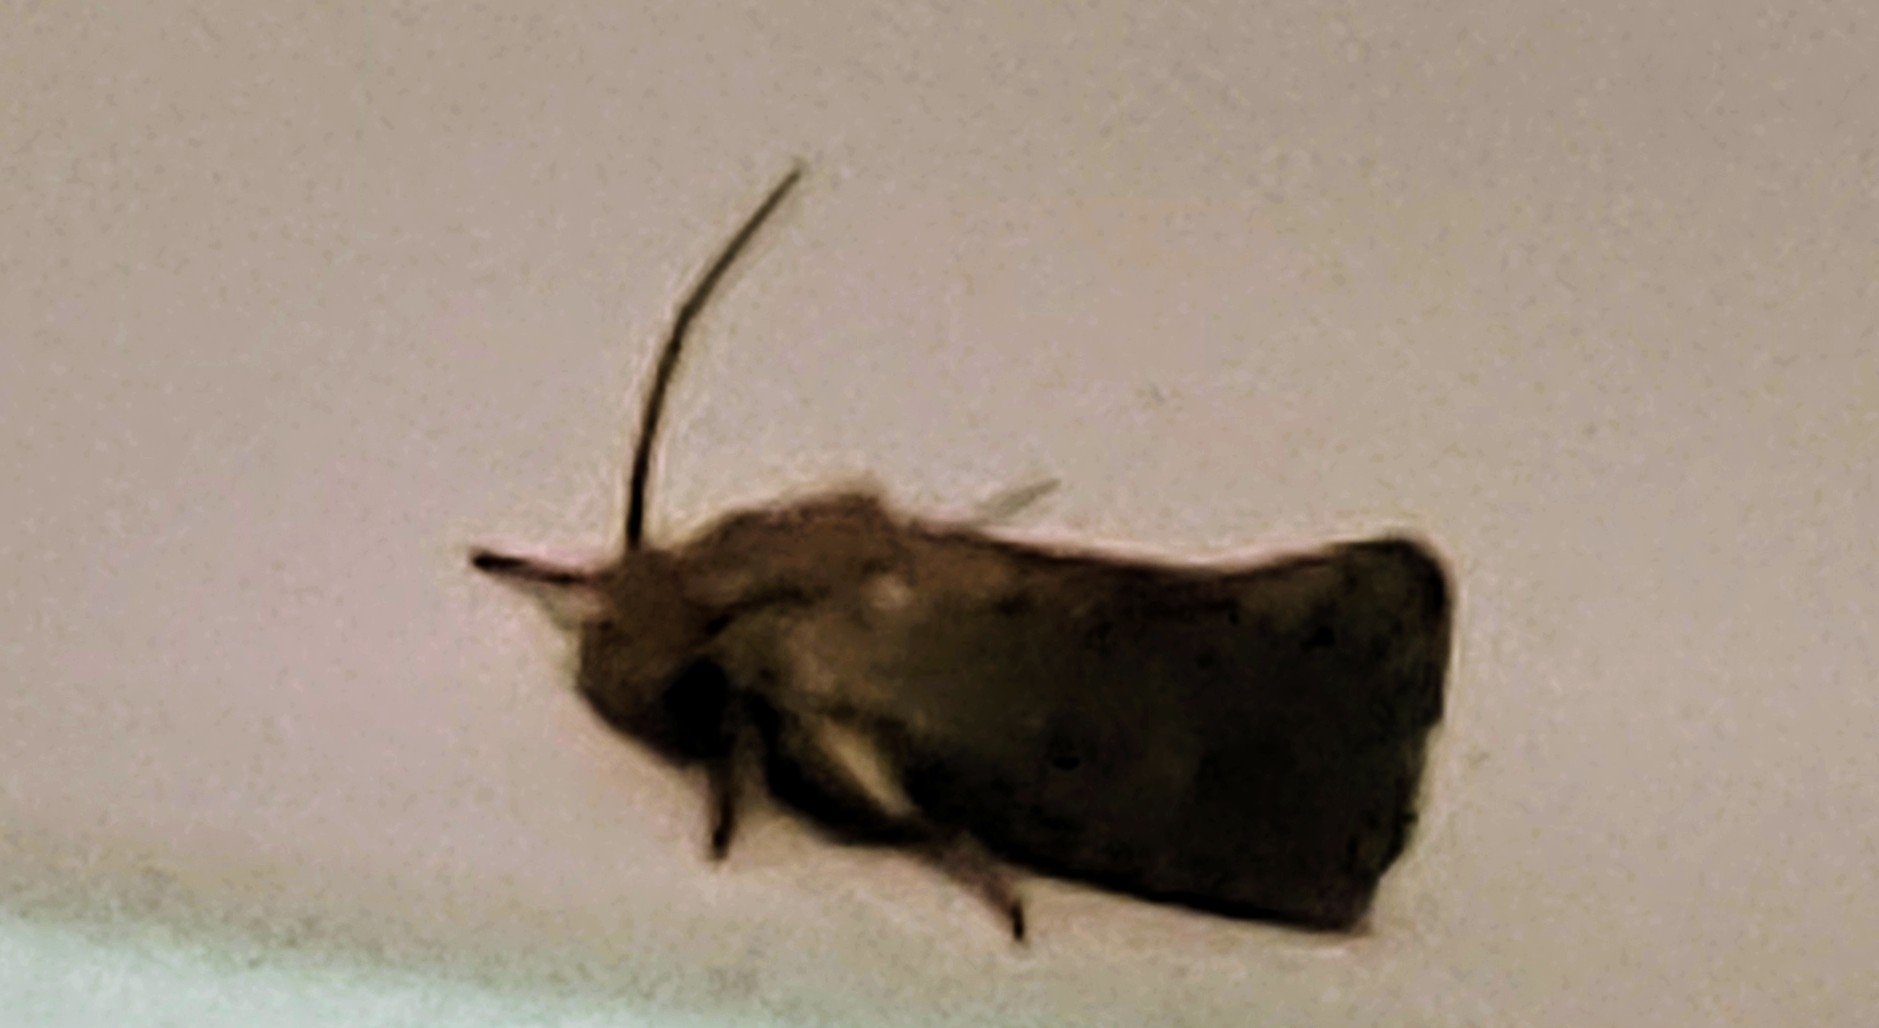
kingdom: Animalia
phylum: Arthropoda
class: Insecta
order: Lepidoptera
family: Tineidae
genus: Acrolophus
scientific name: Acrolophus walsinghami
